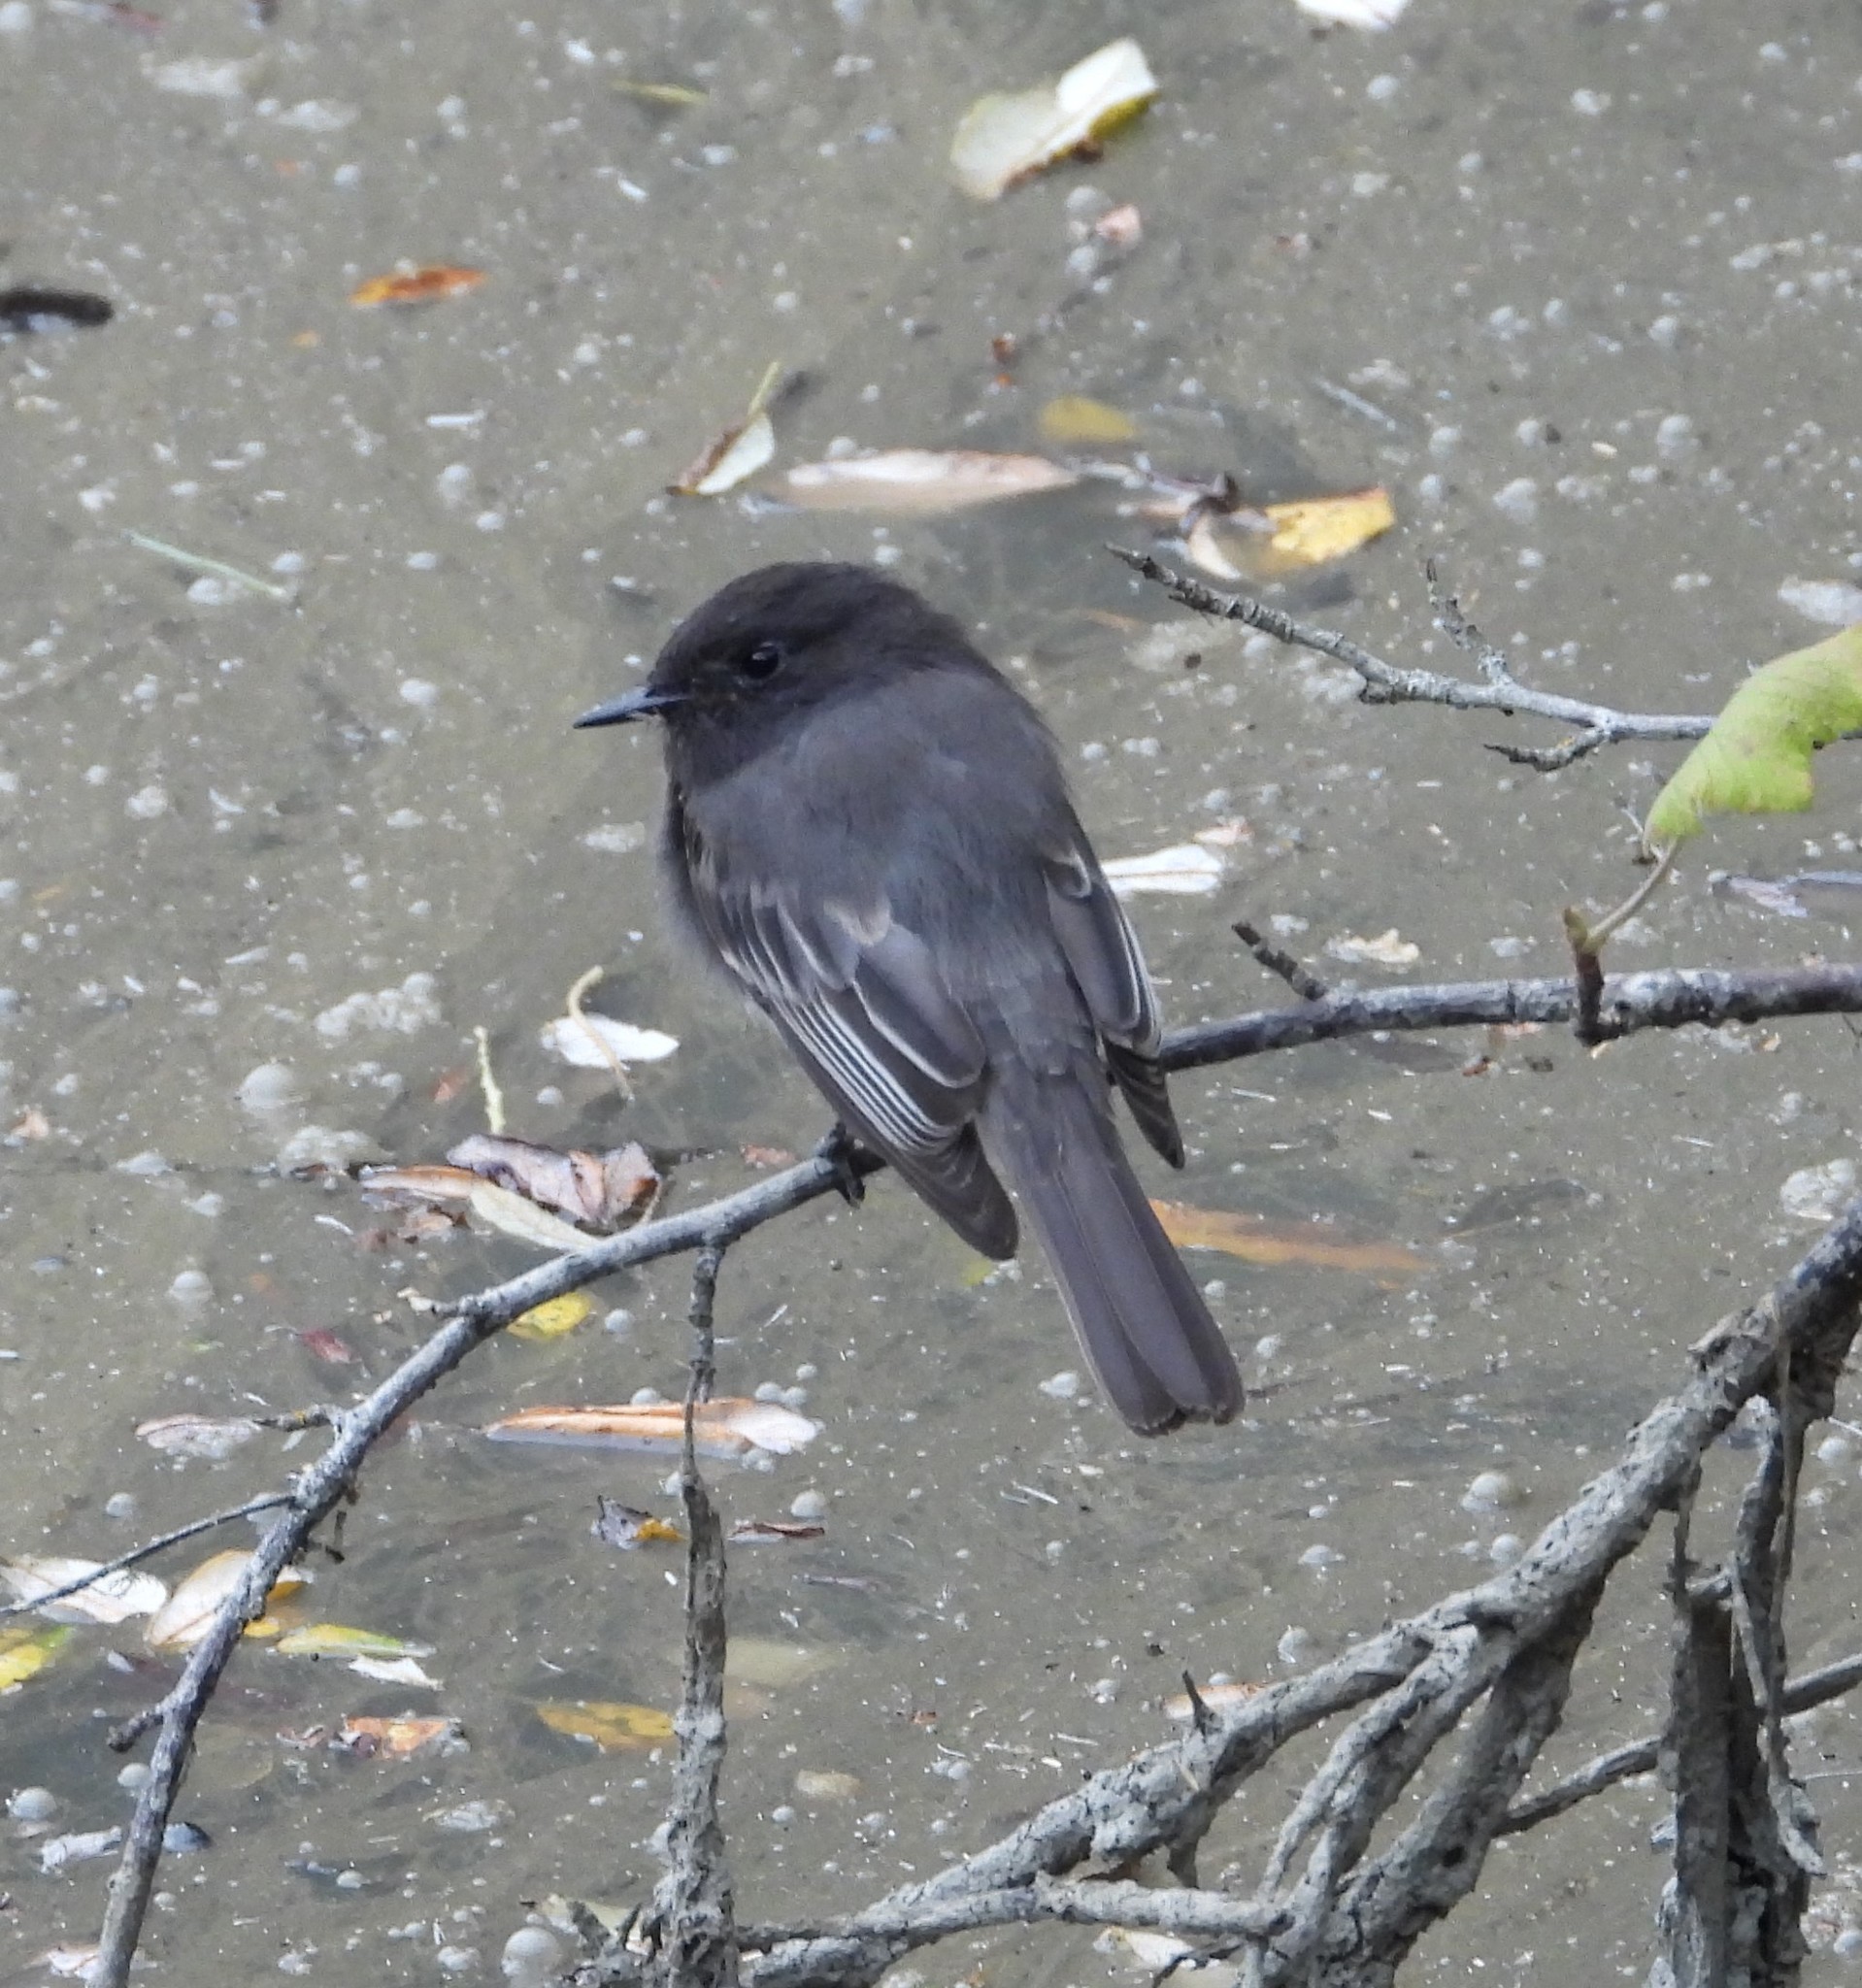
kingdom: Animalia
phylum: Chordata
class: Aves
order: Passeriformes
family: Tyrannidae
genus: Sayornis
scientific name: Sayornis nigricans
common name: Black phoebe
